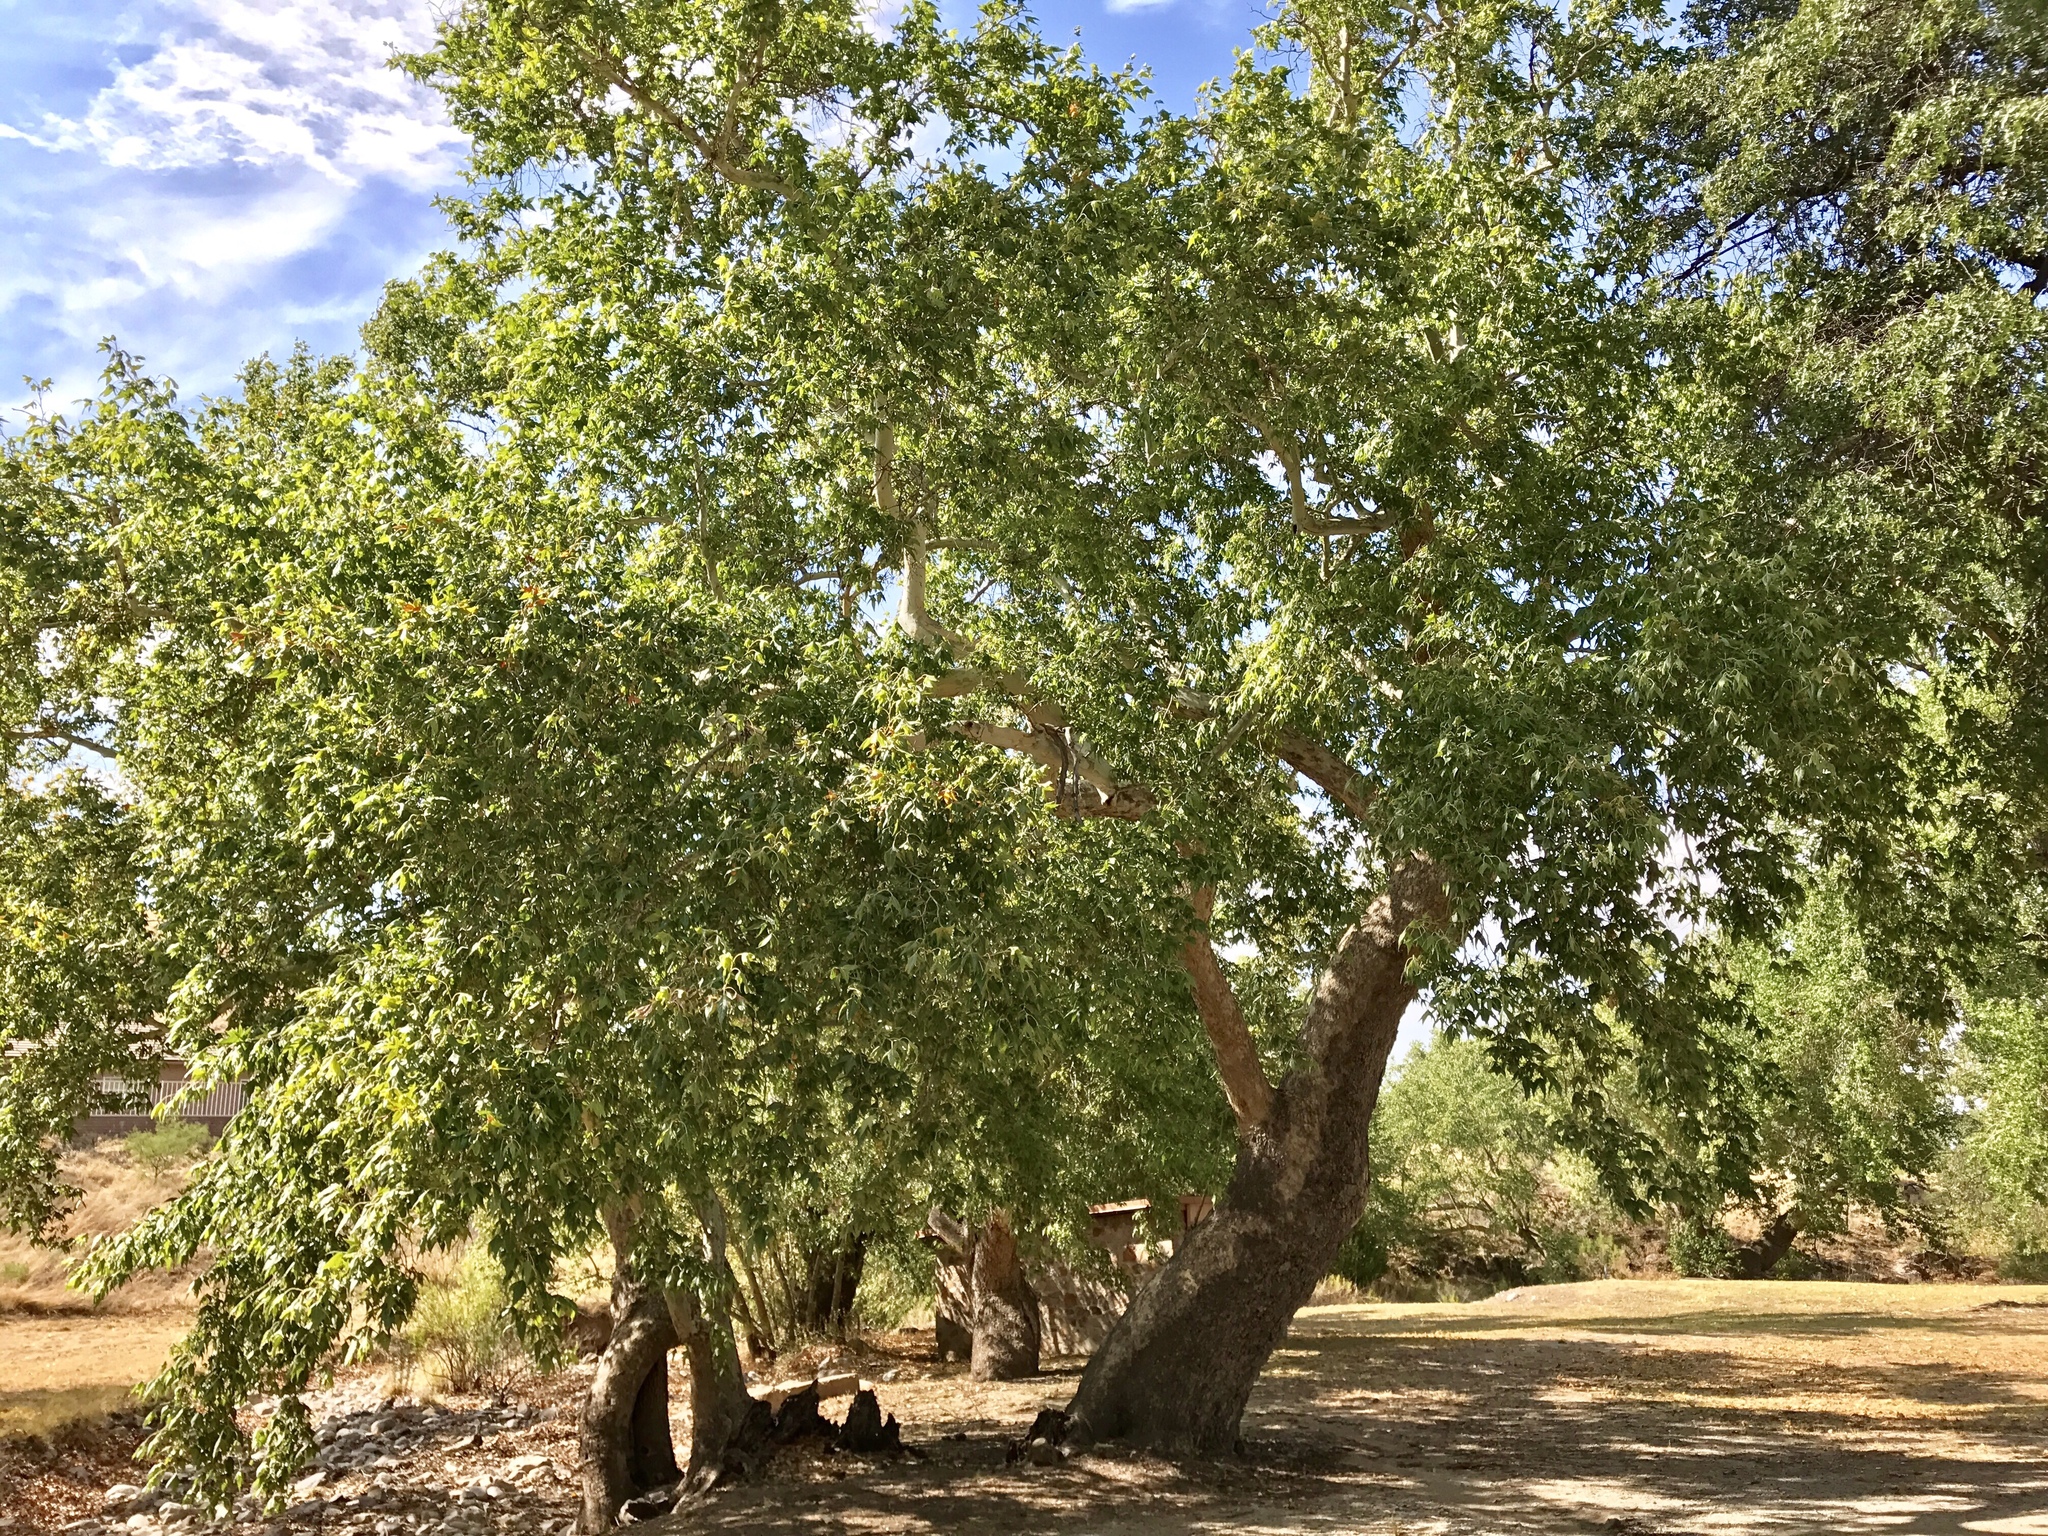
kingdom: Plantae
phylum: Tracheophyta
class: Magnoliopsida
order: Proteales
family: Platanaceae
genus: Platanus
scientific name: Platanus wrightii
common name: Arizona sycamore
